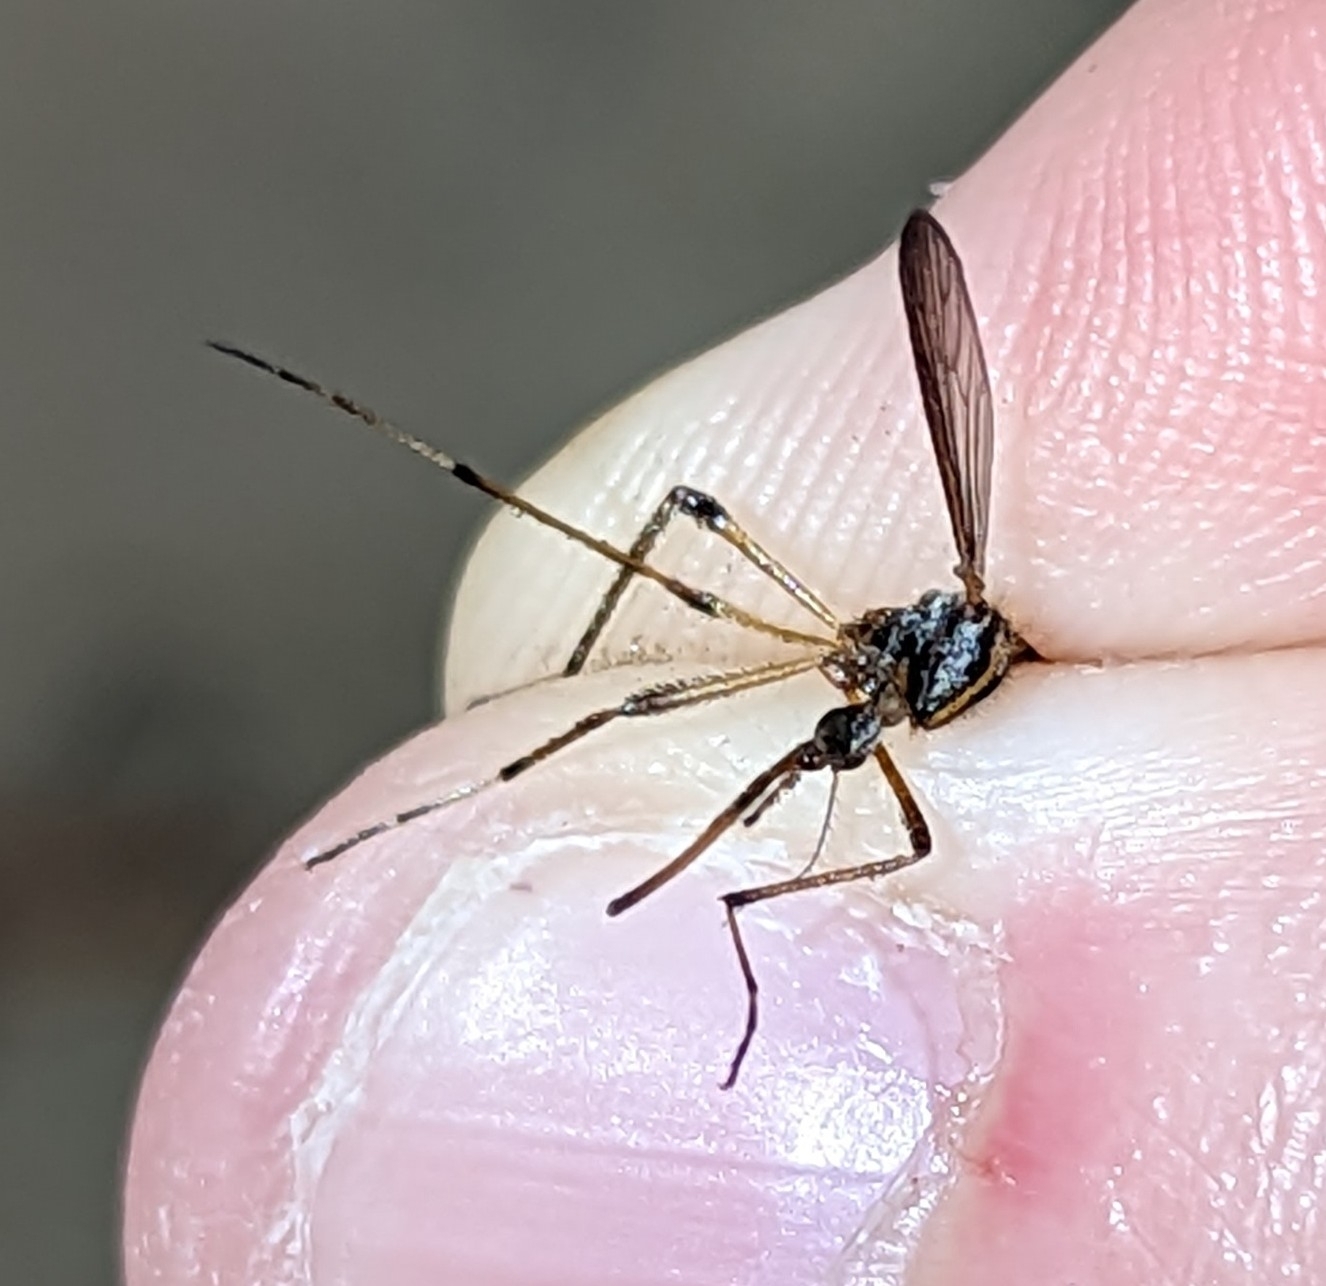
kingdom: Animalia
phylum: Arthropoda
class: Insecta
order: Diptera
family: Culicidae
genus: Psorophora
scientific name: Psorophora ciliata
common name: Gallinipper
